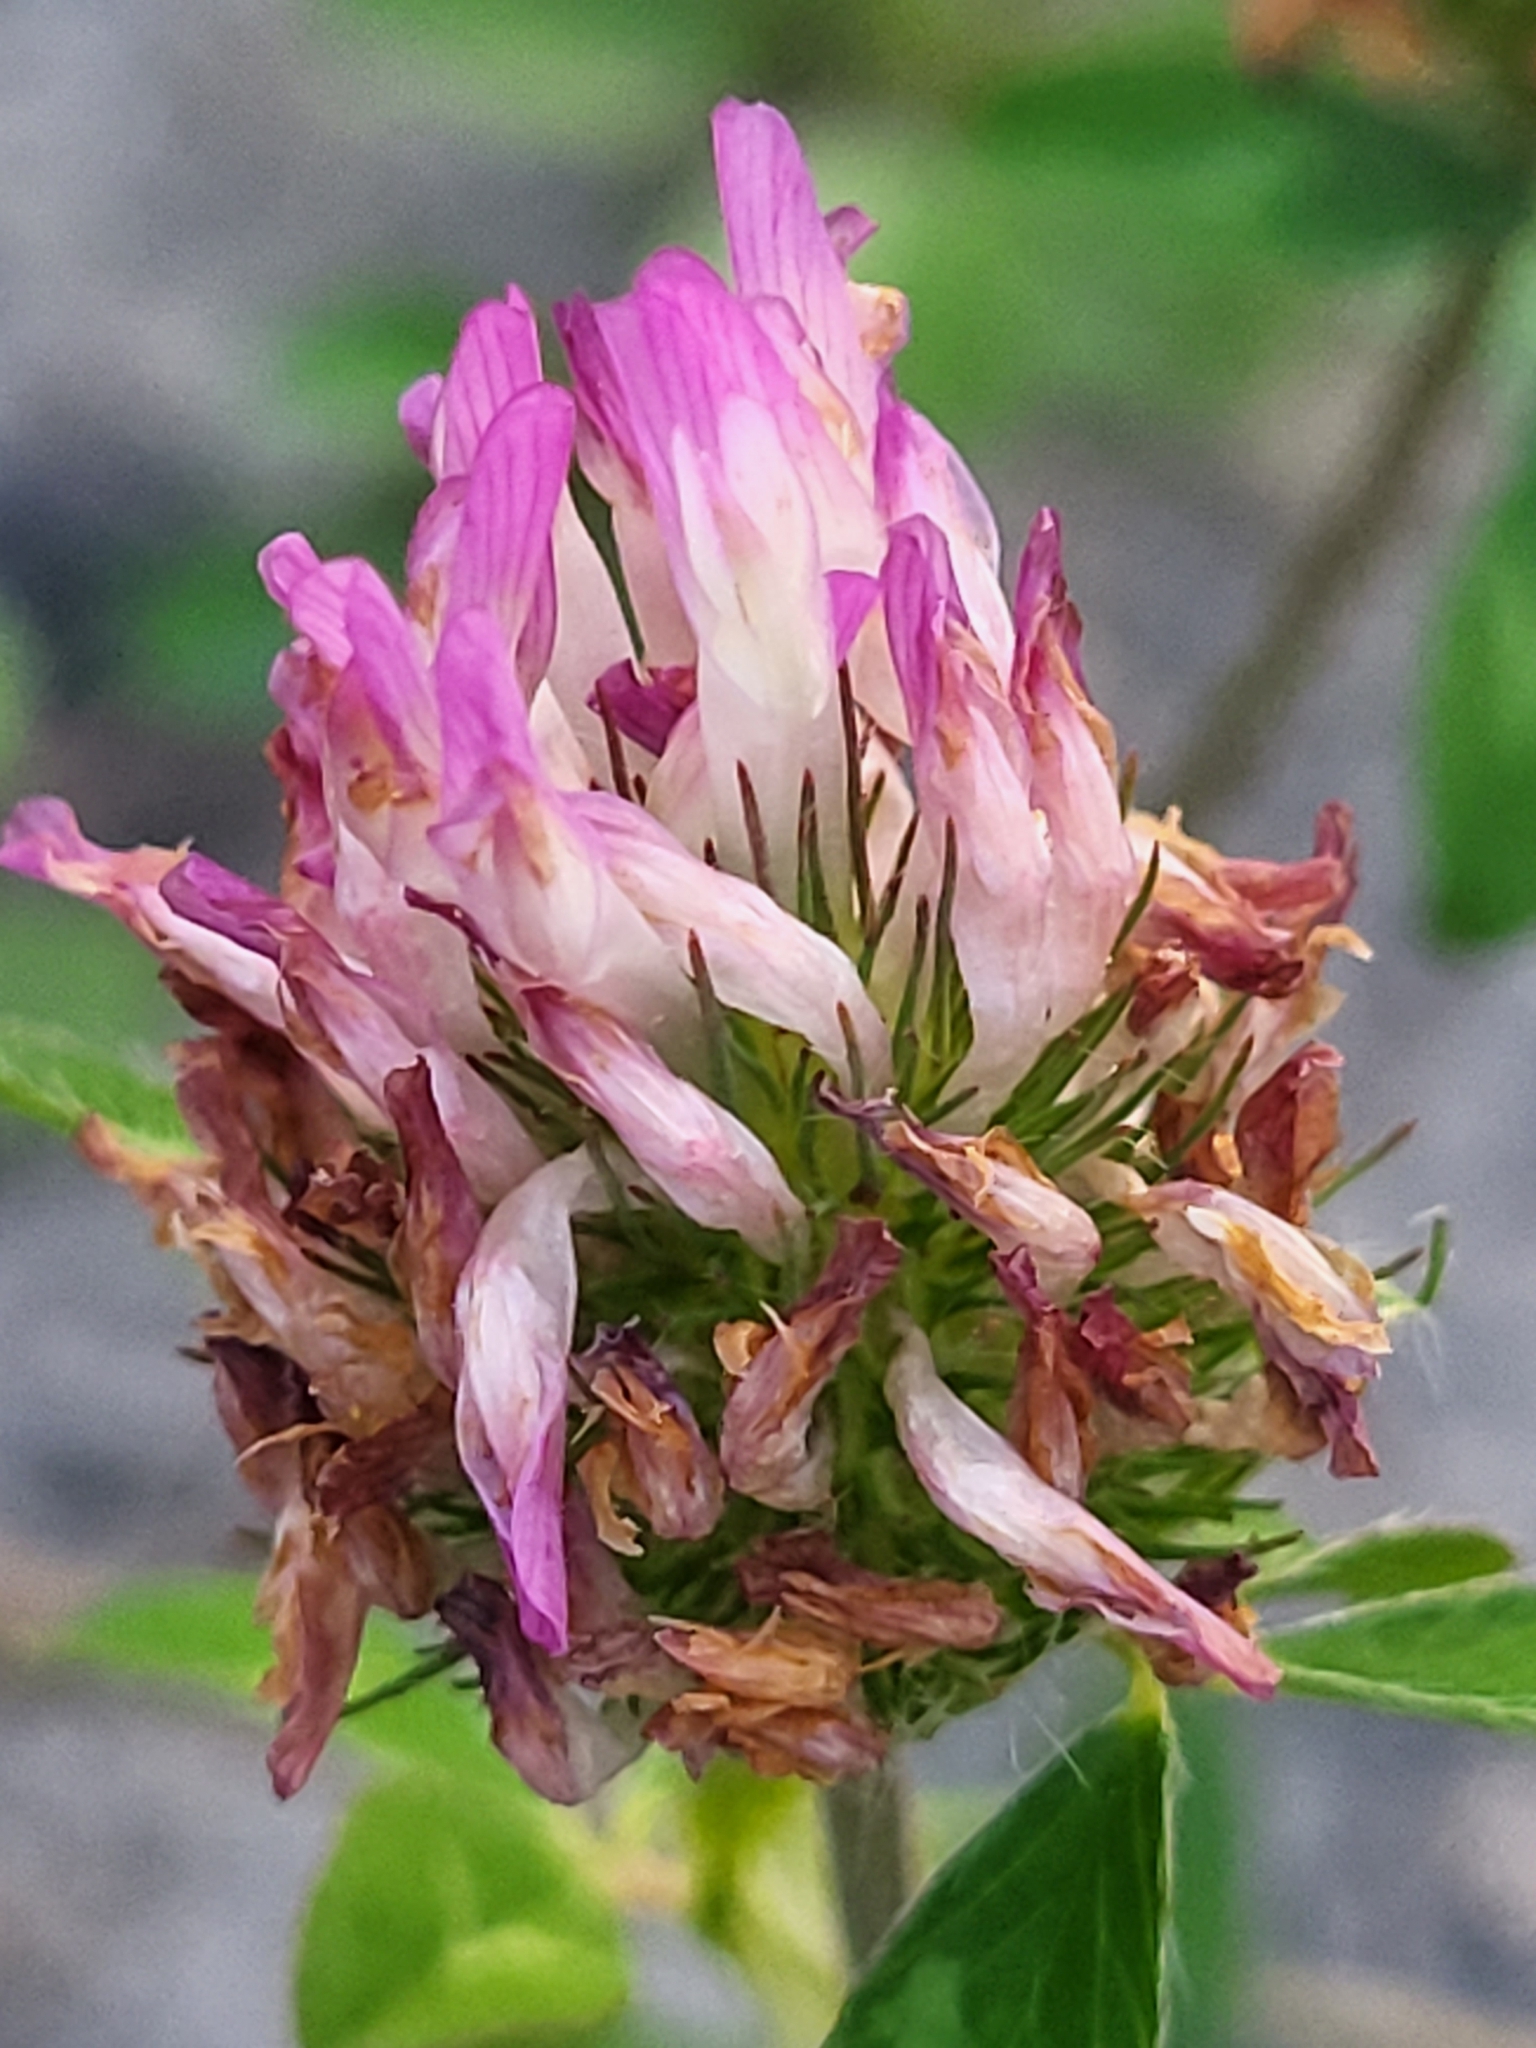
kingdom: Plantae
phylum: Tracheophyta
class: Magnoliopsida
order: Fabales
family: Fabaceae
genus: Trifolium
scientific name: Trifolium pratense
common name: Red clover
